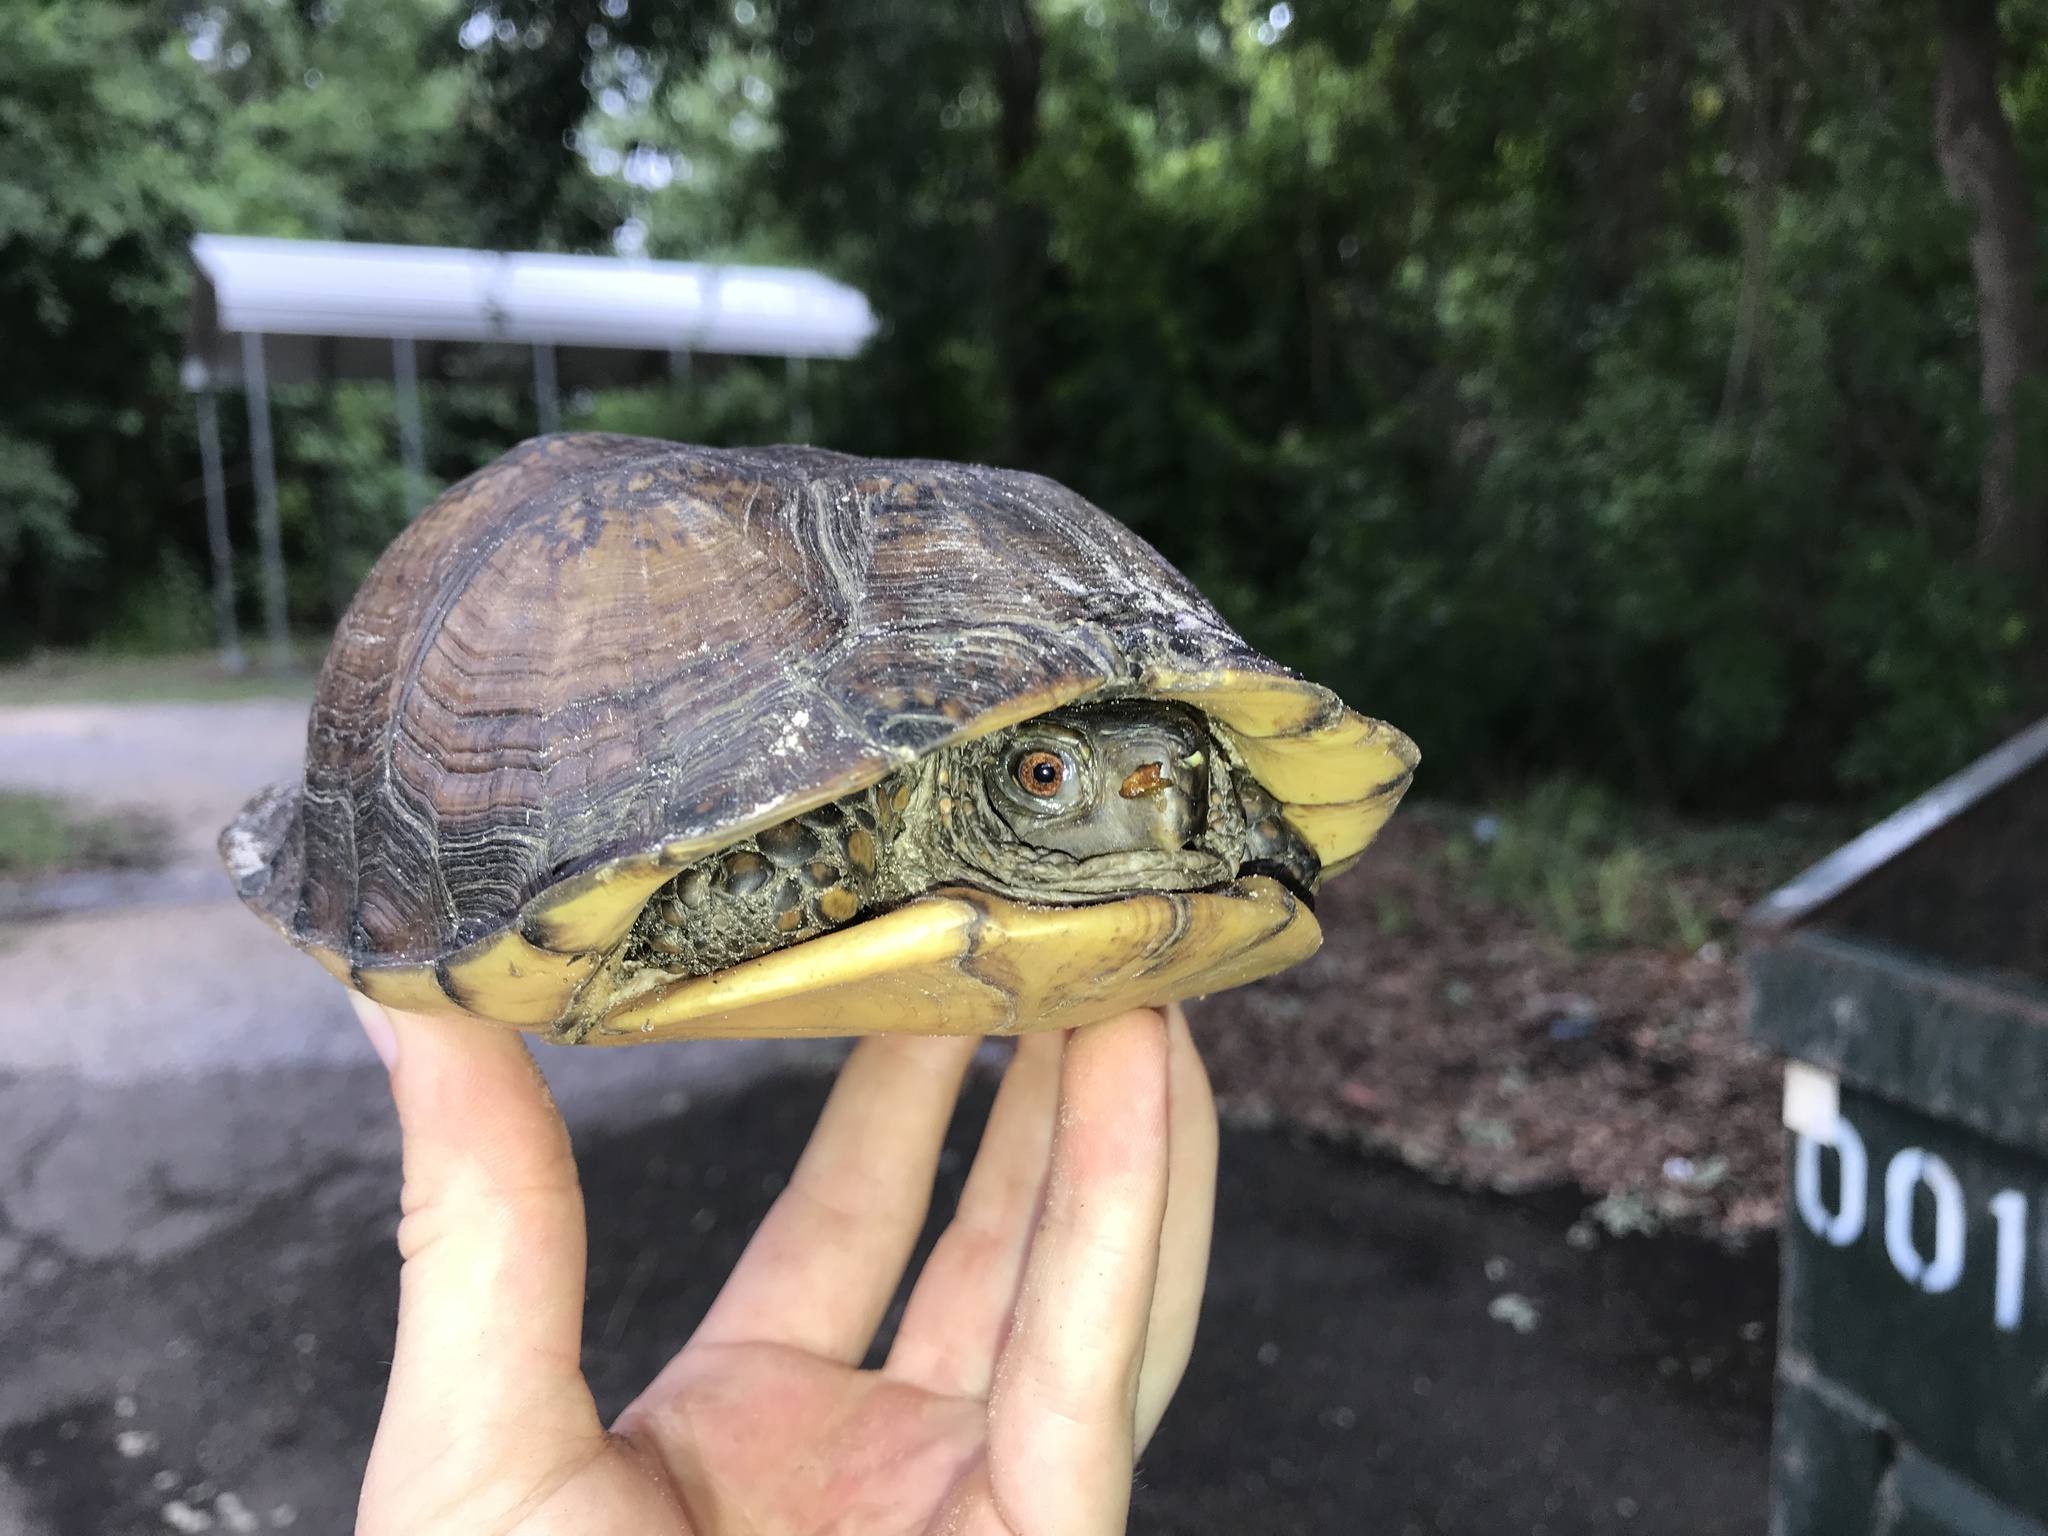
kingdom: Animalia
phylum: Chordata
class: Testudines
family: Emydidae
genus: Terrapene
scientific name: Terrapene carolina
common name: Common box turtle
